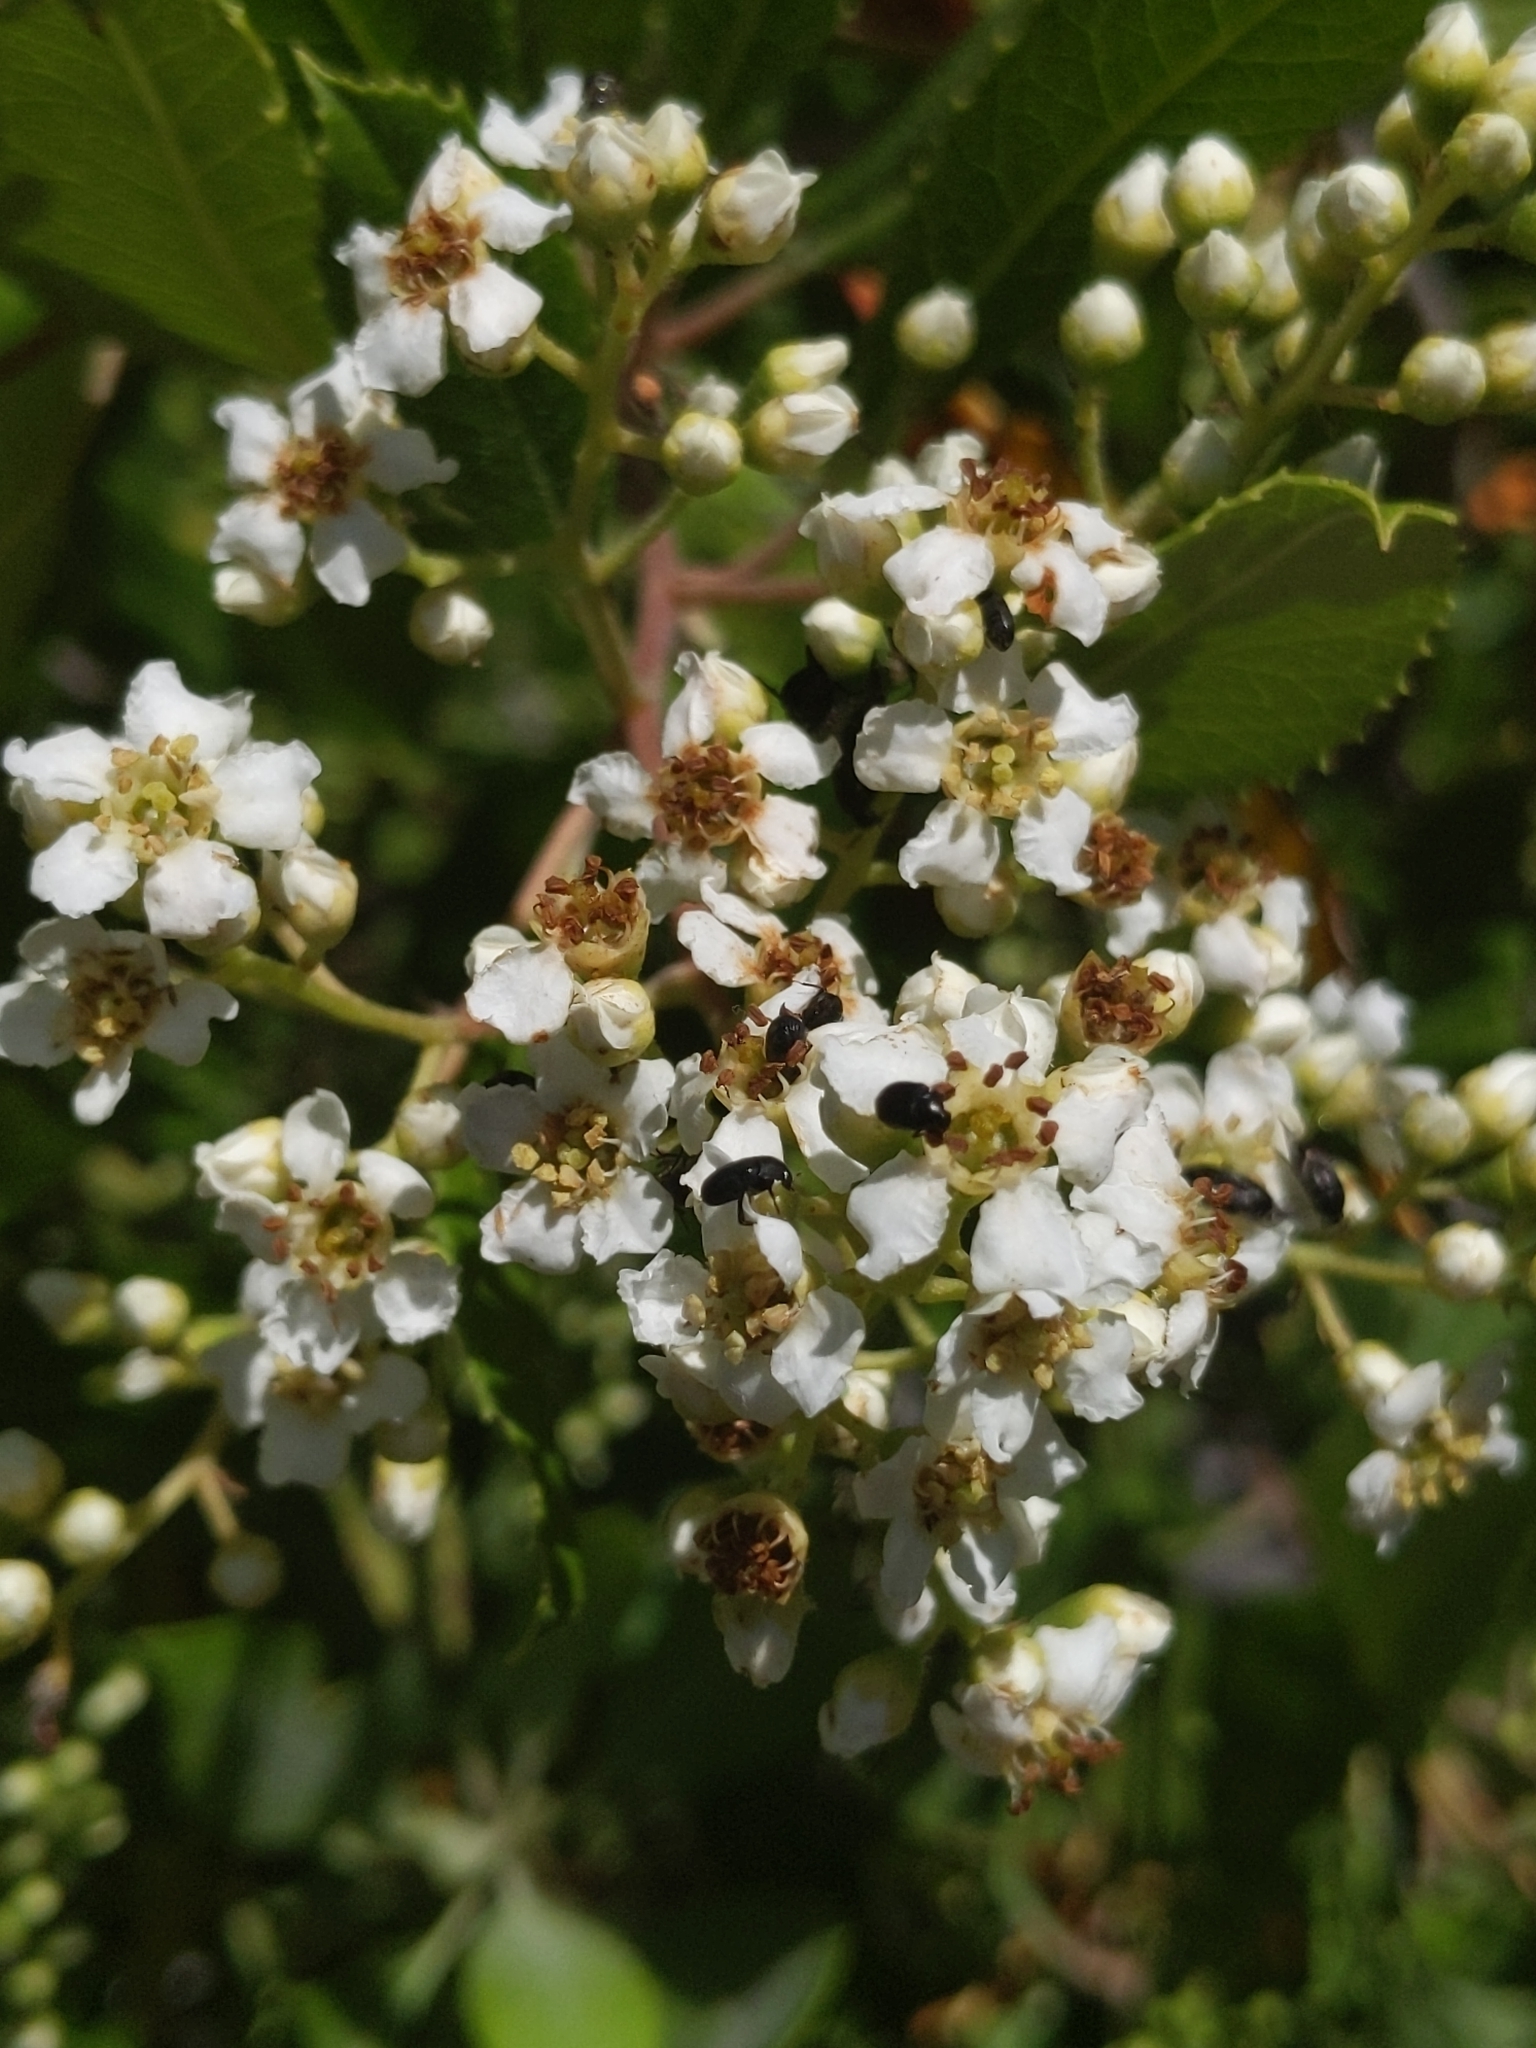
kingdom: Plantae
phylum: Tracheophyta
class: Magnoliopsida
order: Rosales
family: Rosaceae
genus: Heteromeles
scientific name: Heteromeles arbutifolia
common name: California-holly
